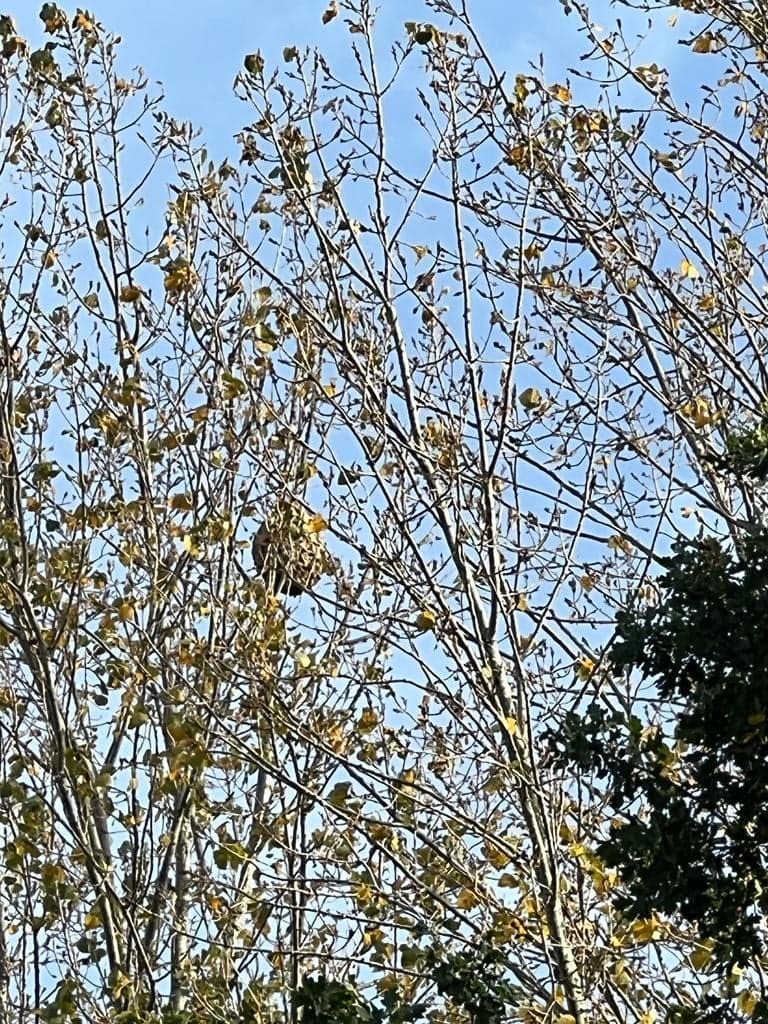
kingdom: Animalia
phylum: Arthropoda
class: Insecta
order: Hymenoptera
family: Vespidae
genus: Vespa
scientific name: Vespa velutina
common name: Asian hornet
